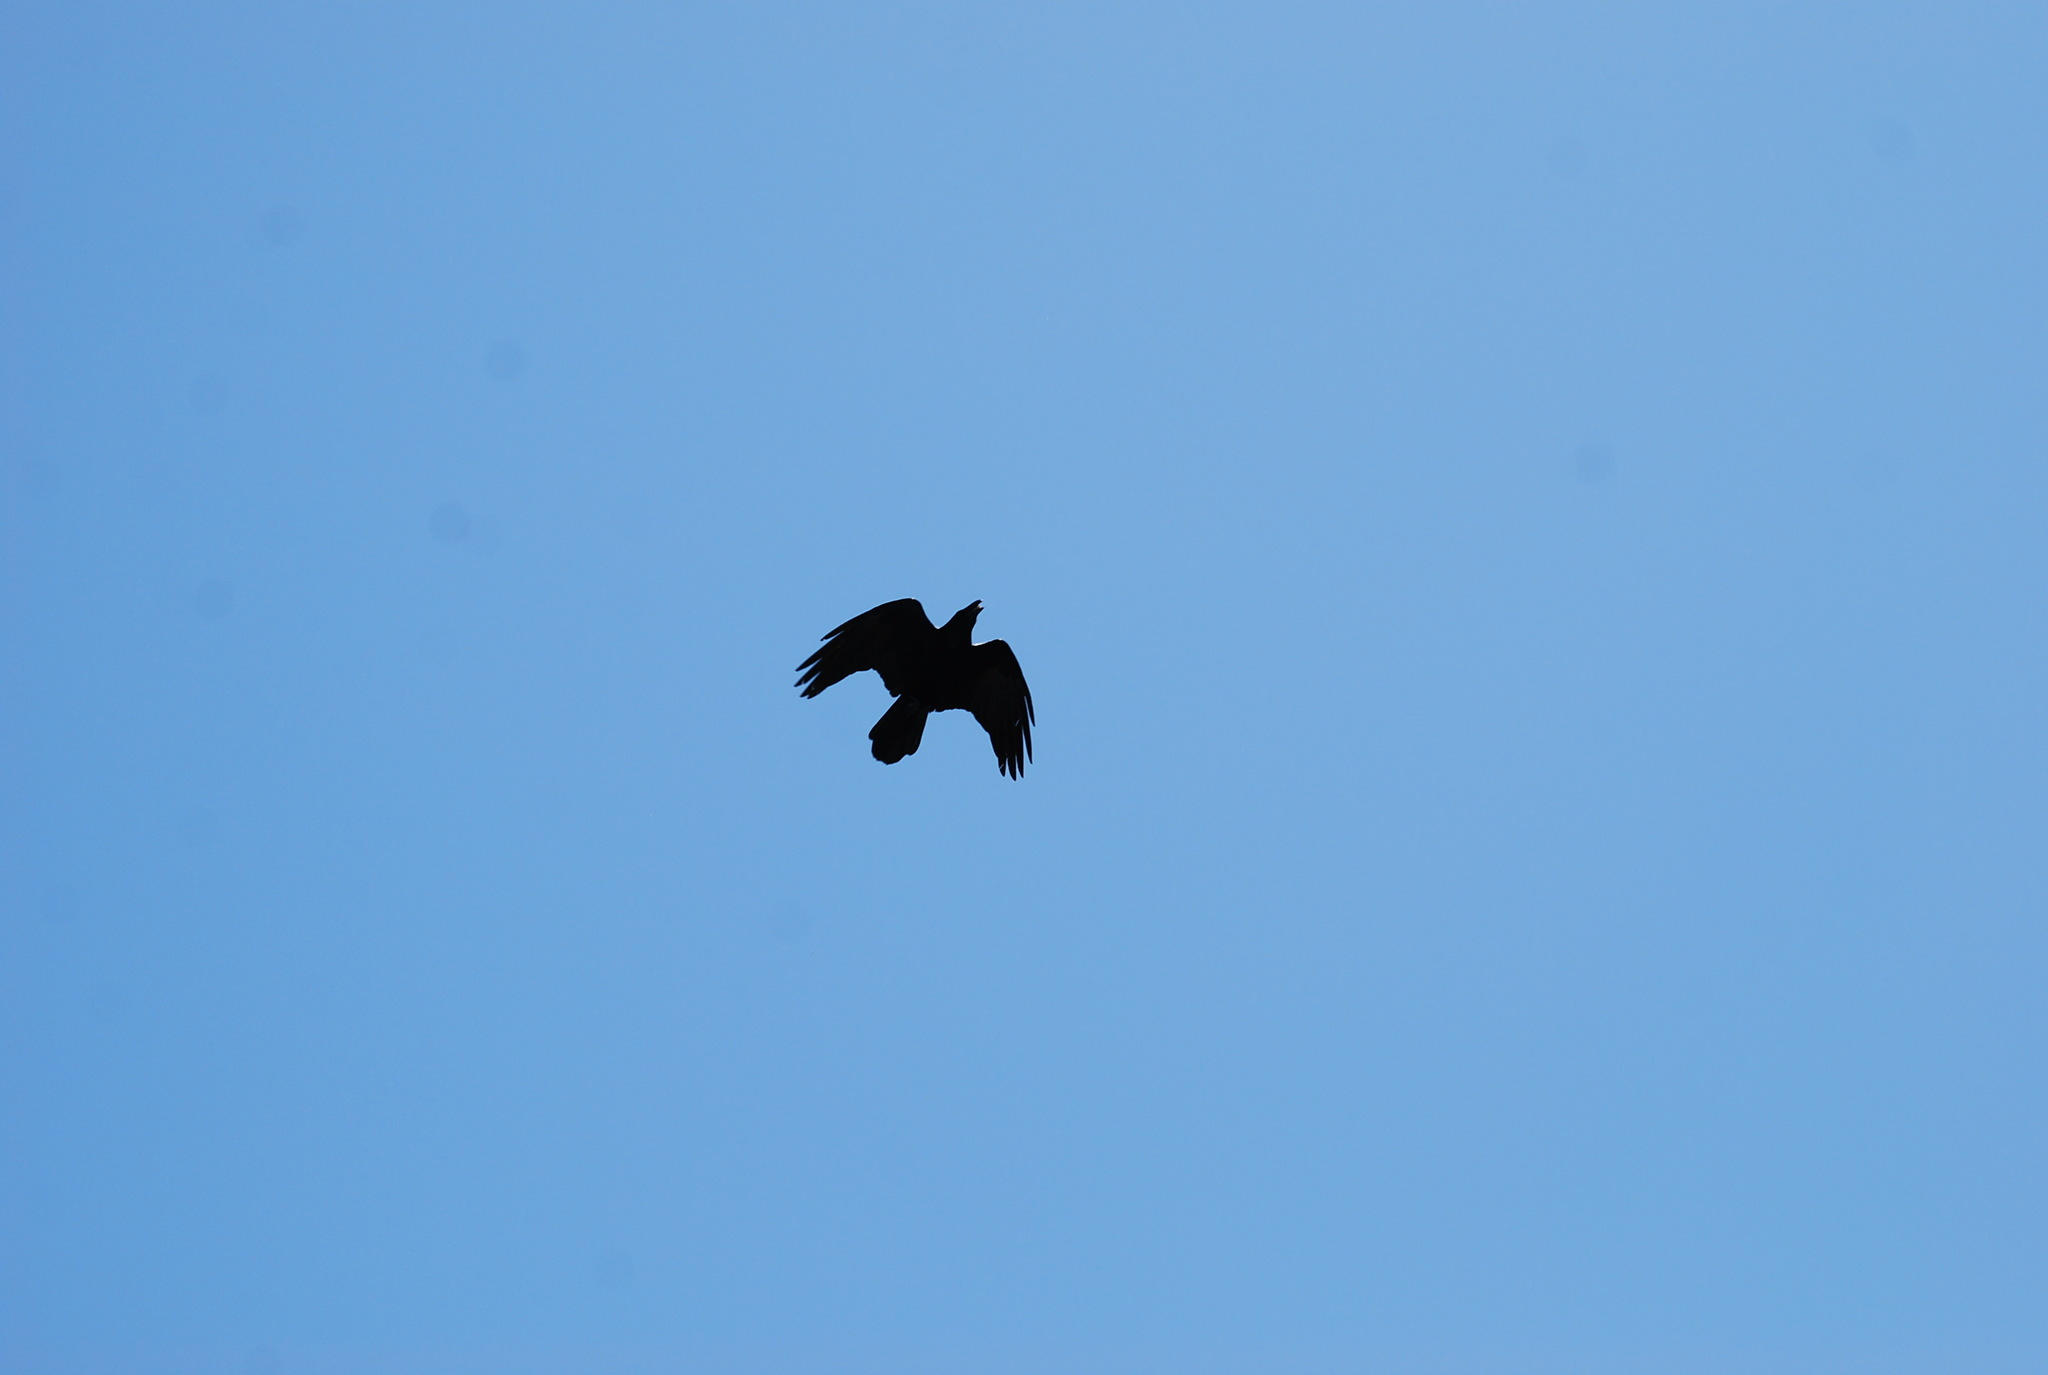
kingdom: Animalia
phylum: Chordata
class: Aves
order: Passeriformes
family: Corvidae
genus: Corvus
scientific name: Corvus corax
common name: Common raven
